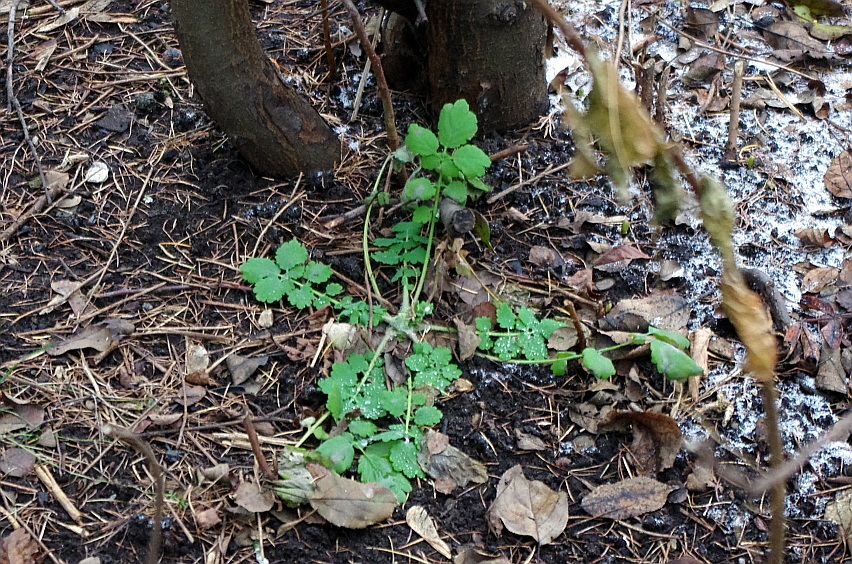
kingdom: Plantae
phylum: Tracheophyta
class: Magnoliopsida
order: Ranunculales
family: Papaveraceae
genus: Chelidonium
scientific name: Chelidonium majus
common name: Greater celandine
